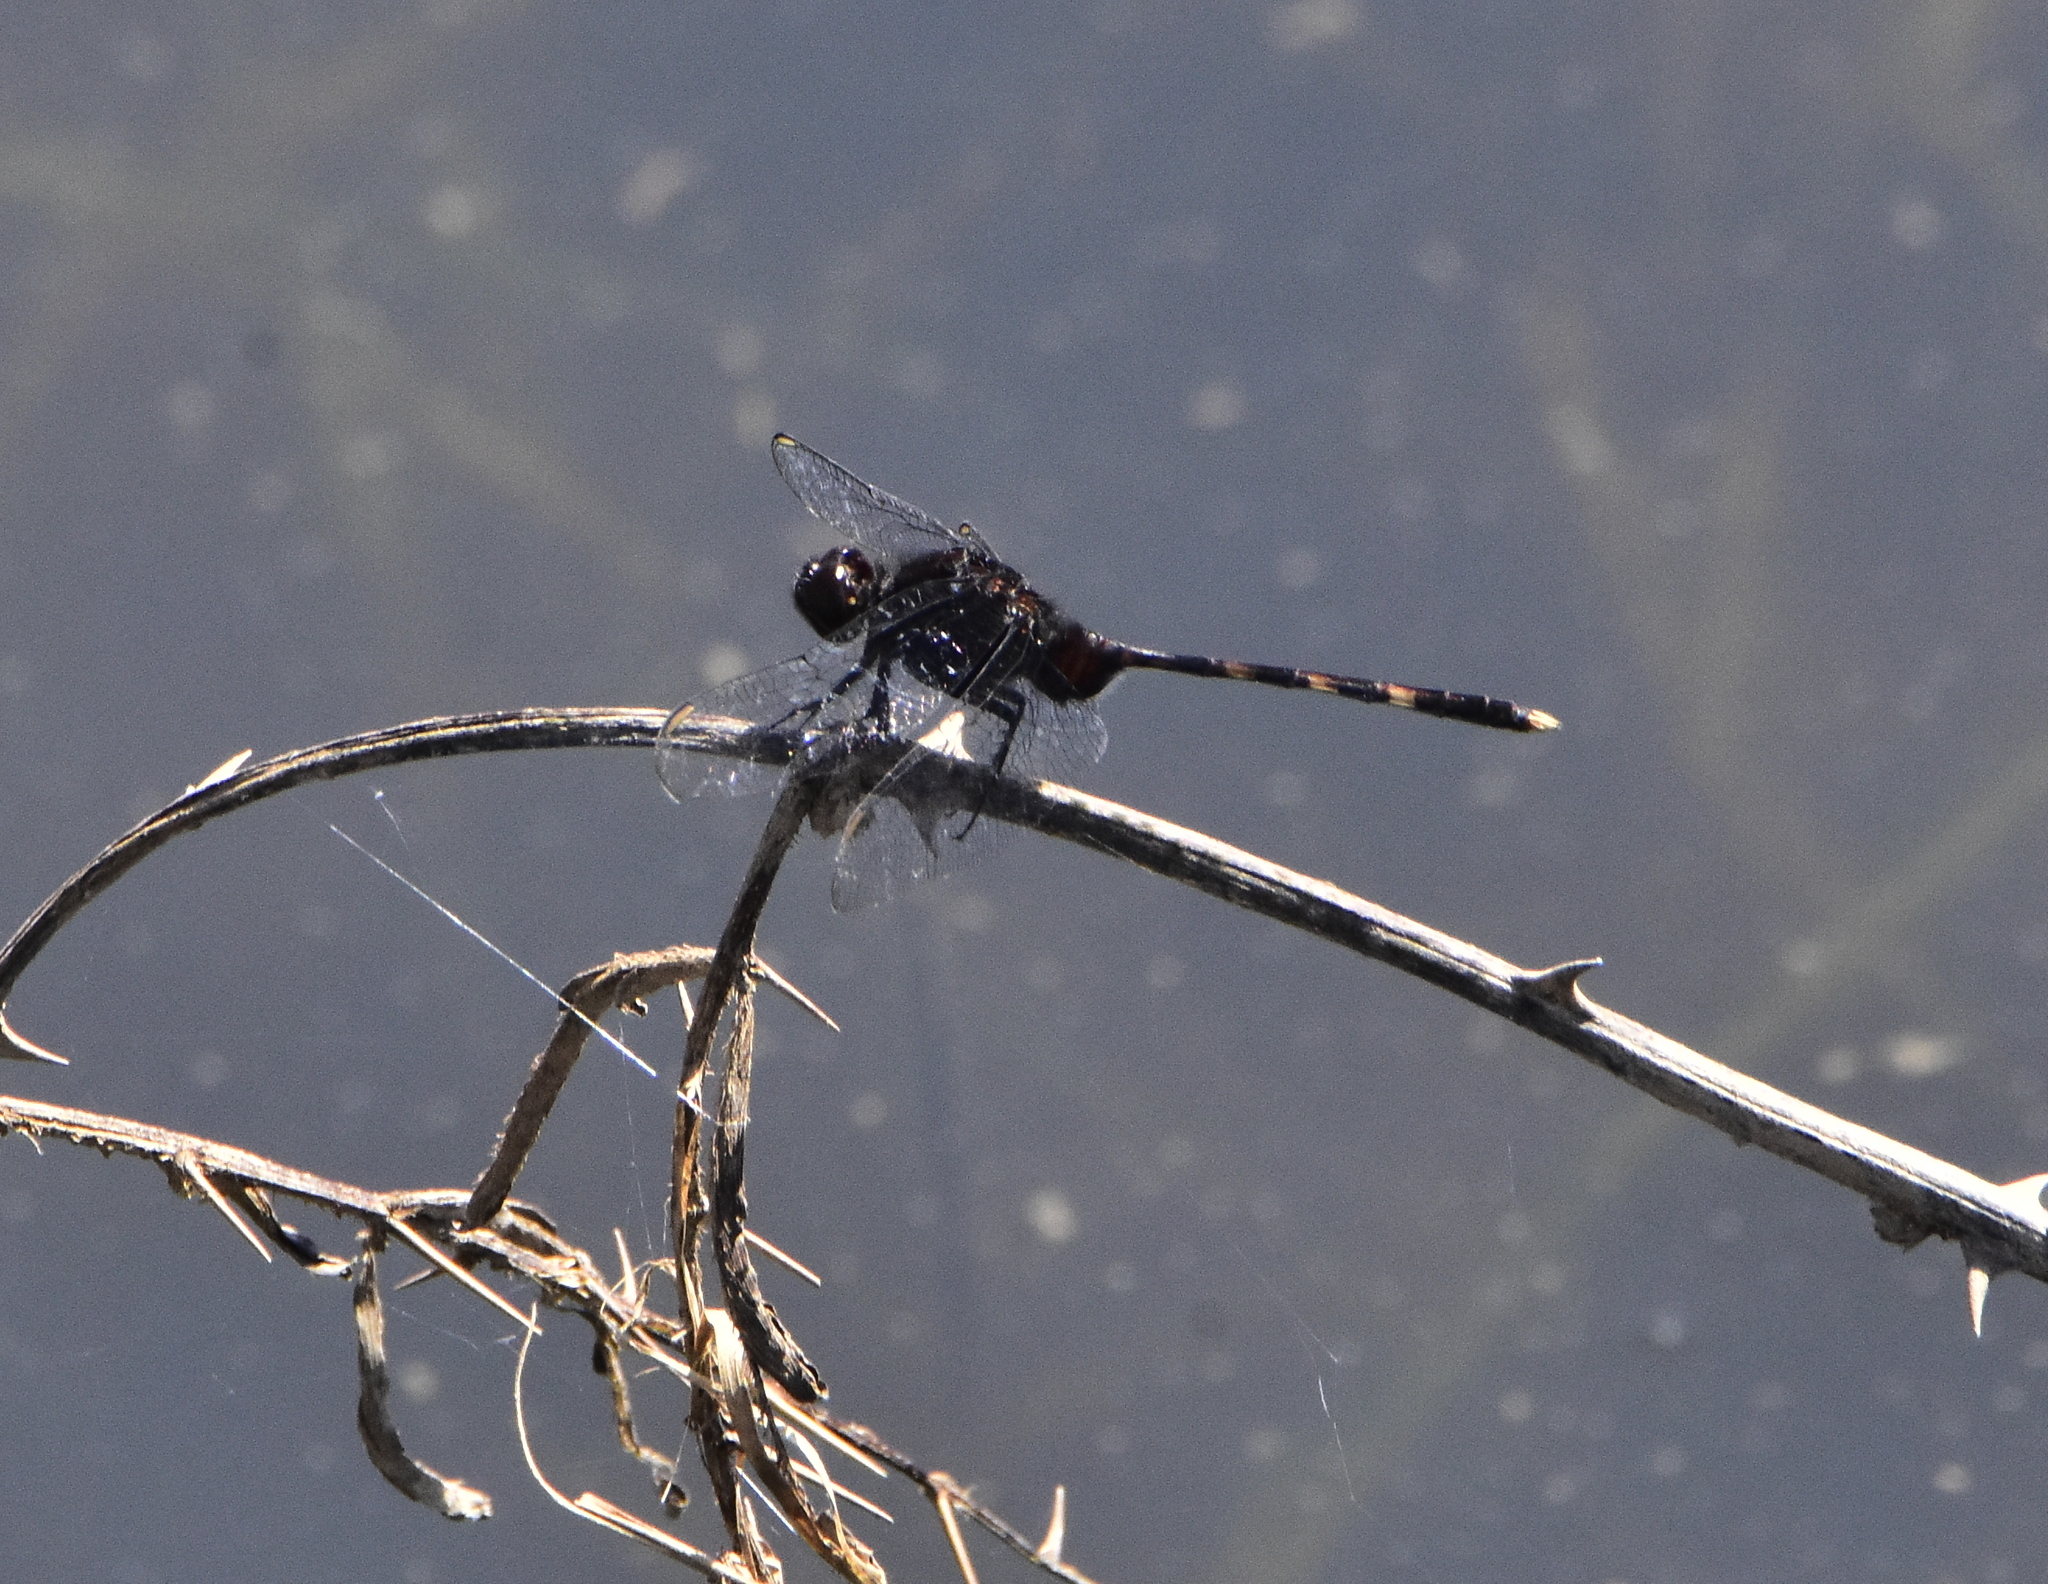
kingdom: Animalia
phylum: Arthropoda
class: Insecta
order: Odonata
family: Libellulidae
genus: Erythemis
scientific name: Erythemis plebeja
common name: Pin-tailed pondhawk
